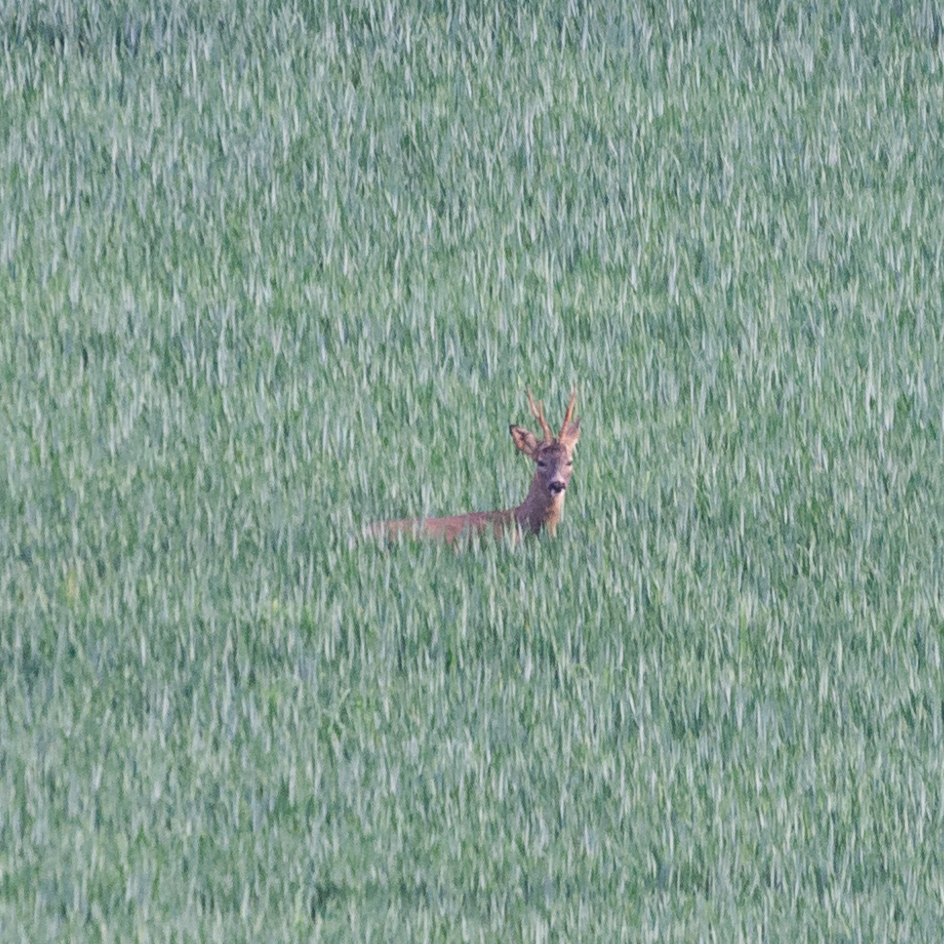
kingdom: Animalia
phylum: Chordata
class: Mammalia
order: Artiodactyla
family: Cervidae
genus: Capreolus
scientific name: Capreolus capreolus
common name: Western roe deer
